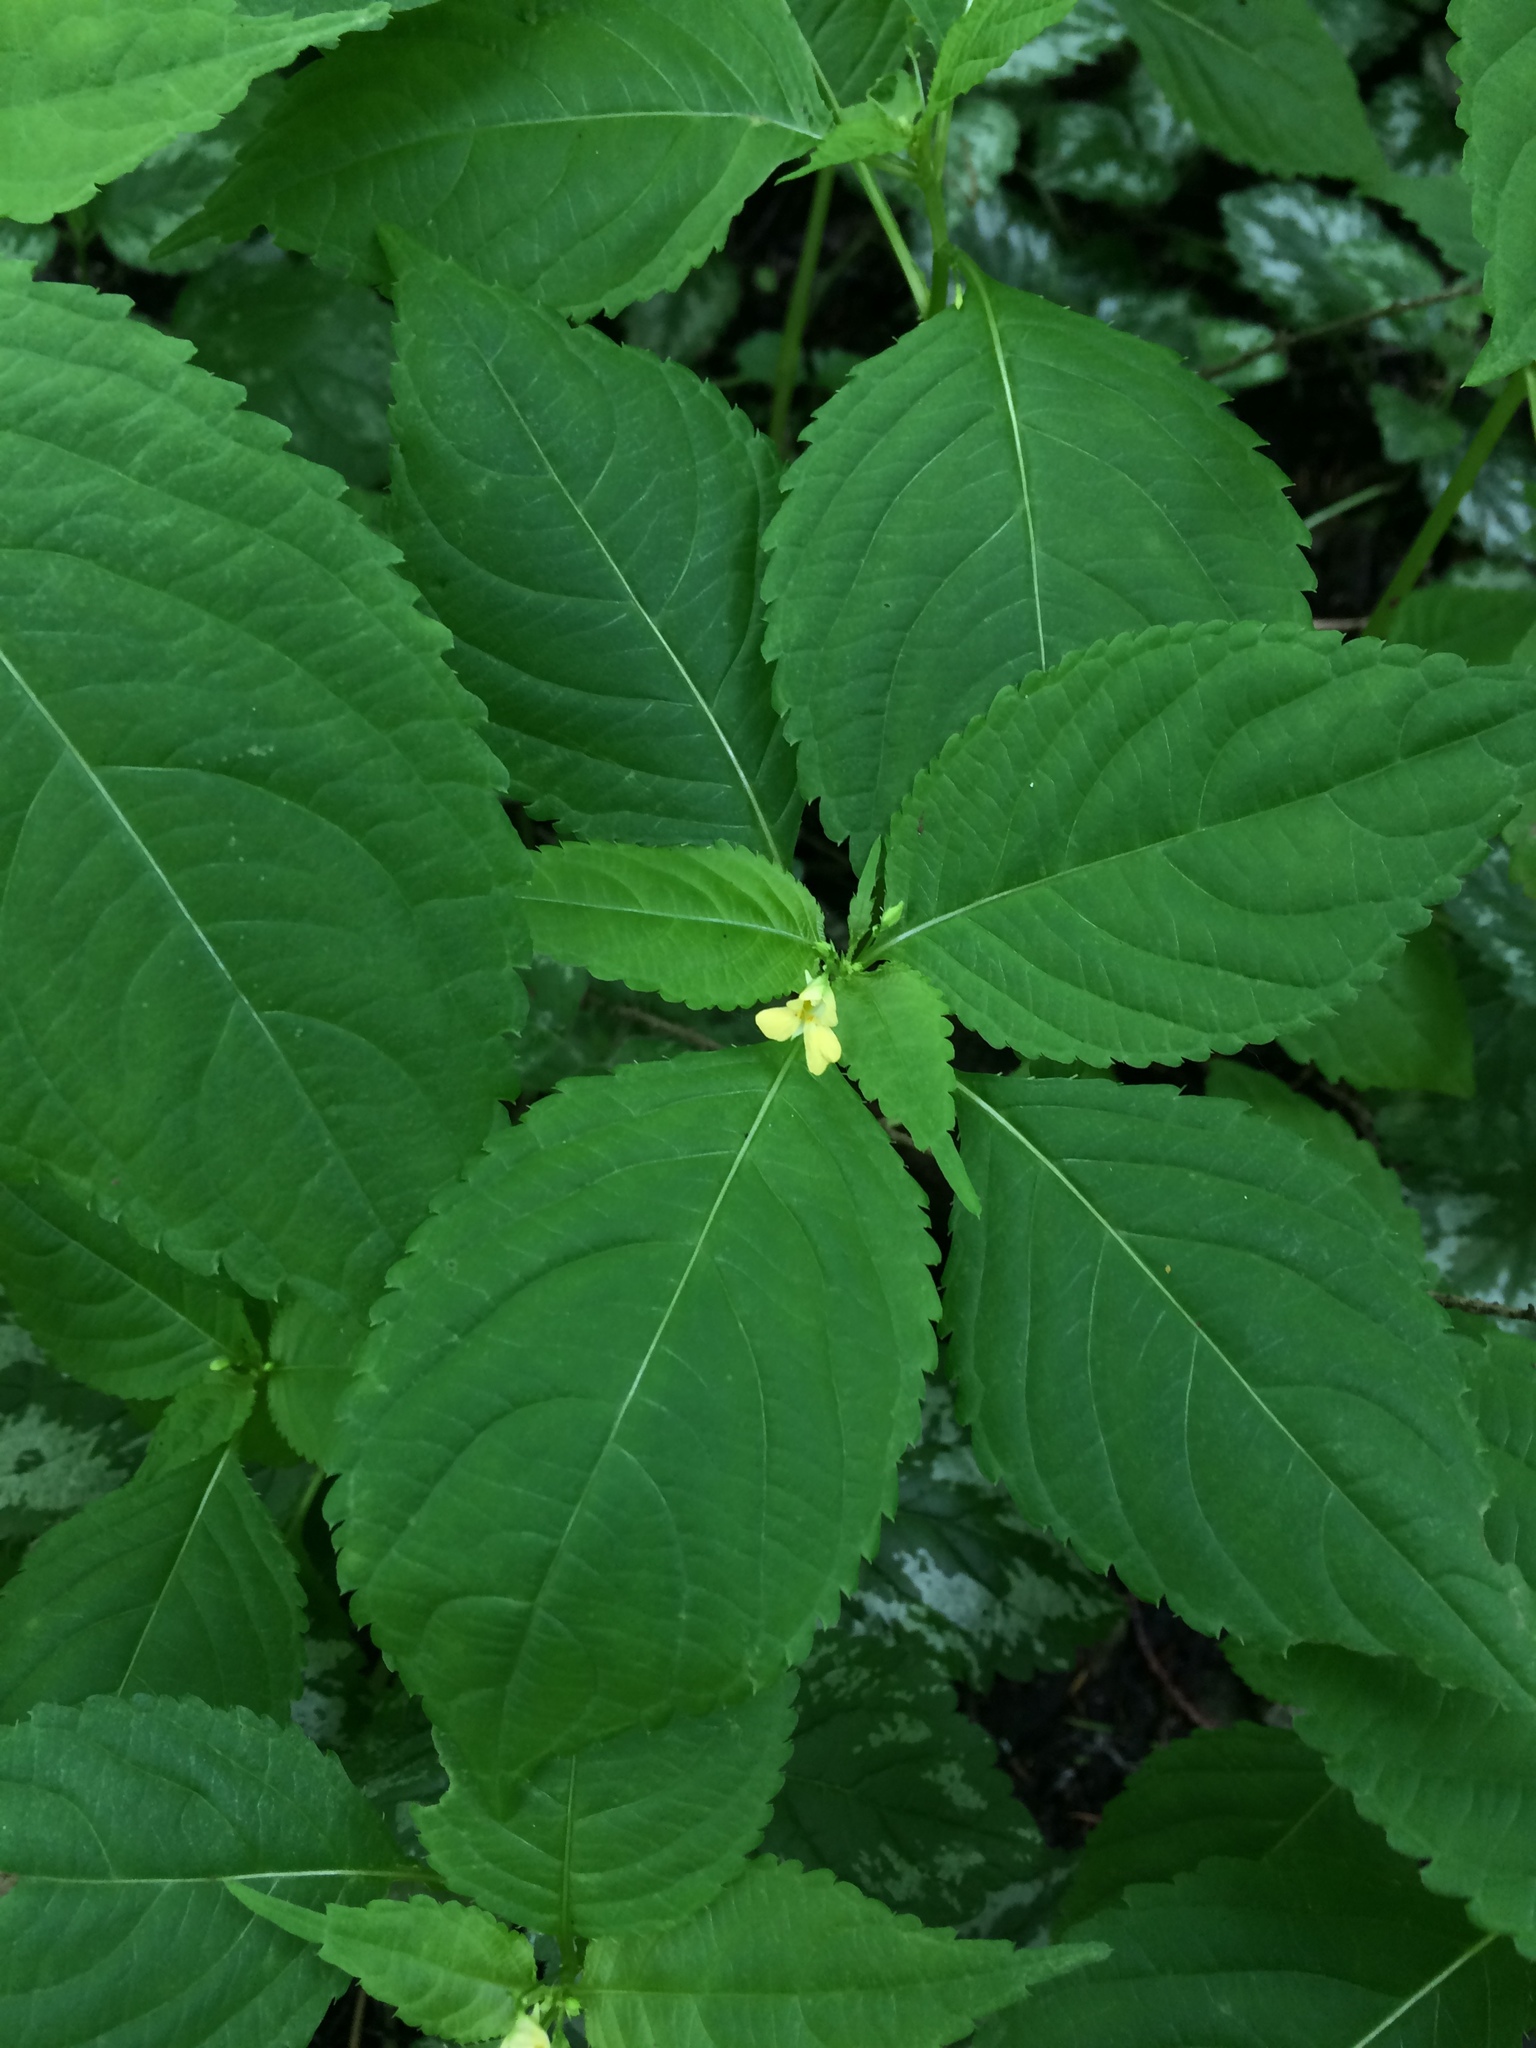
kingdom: Plantae
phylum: Tracheophyta
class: Magnoliopsida
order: Ericales
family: Balsaminaceae
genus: Impatiens
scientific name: Impatiens parviflora
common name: Small balsam
